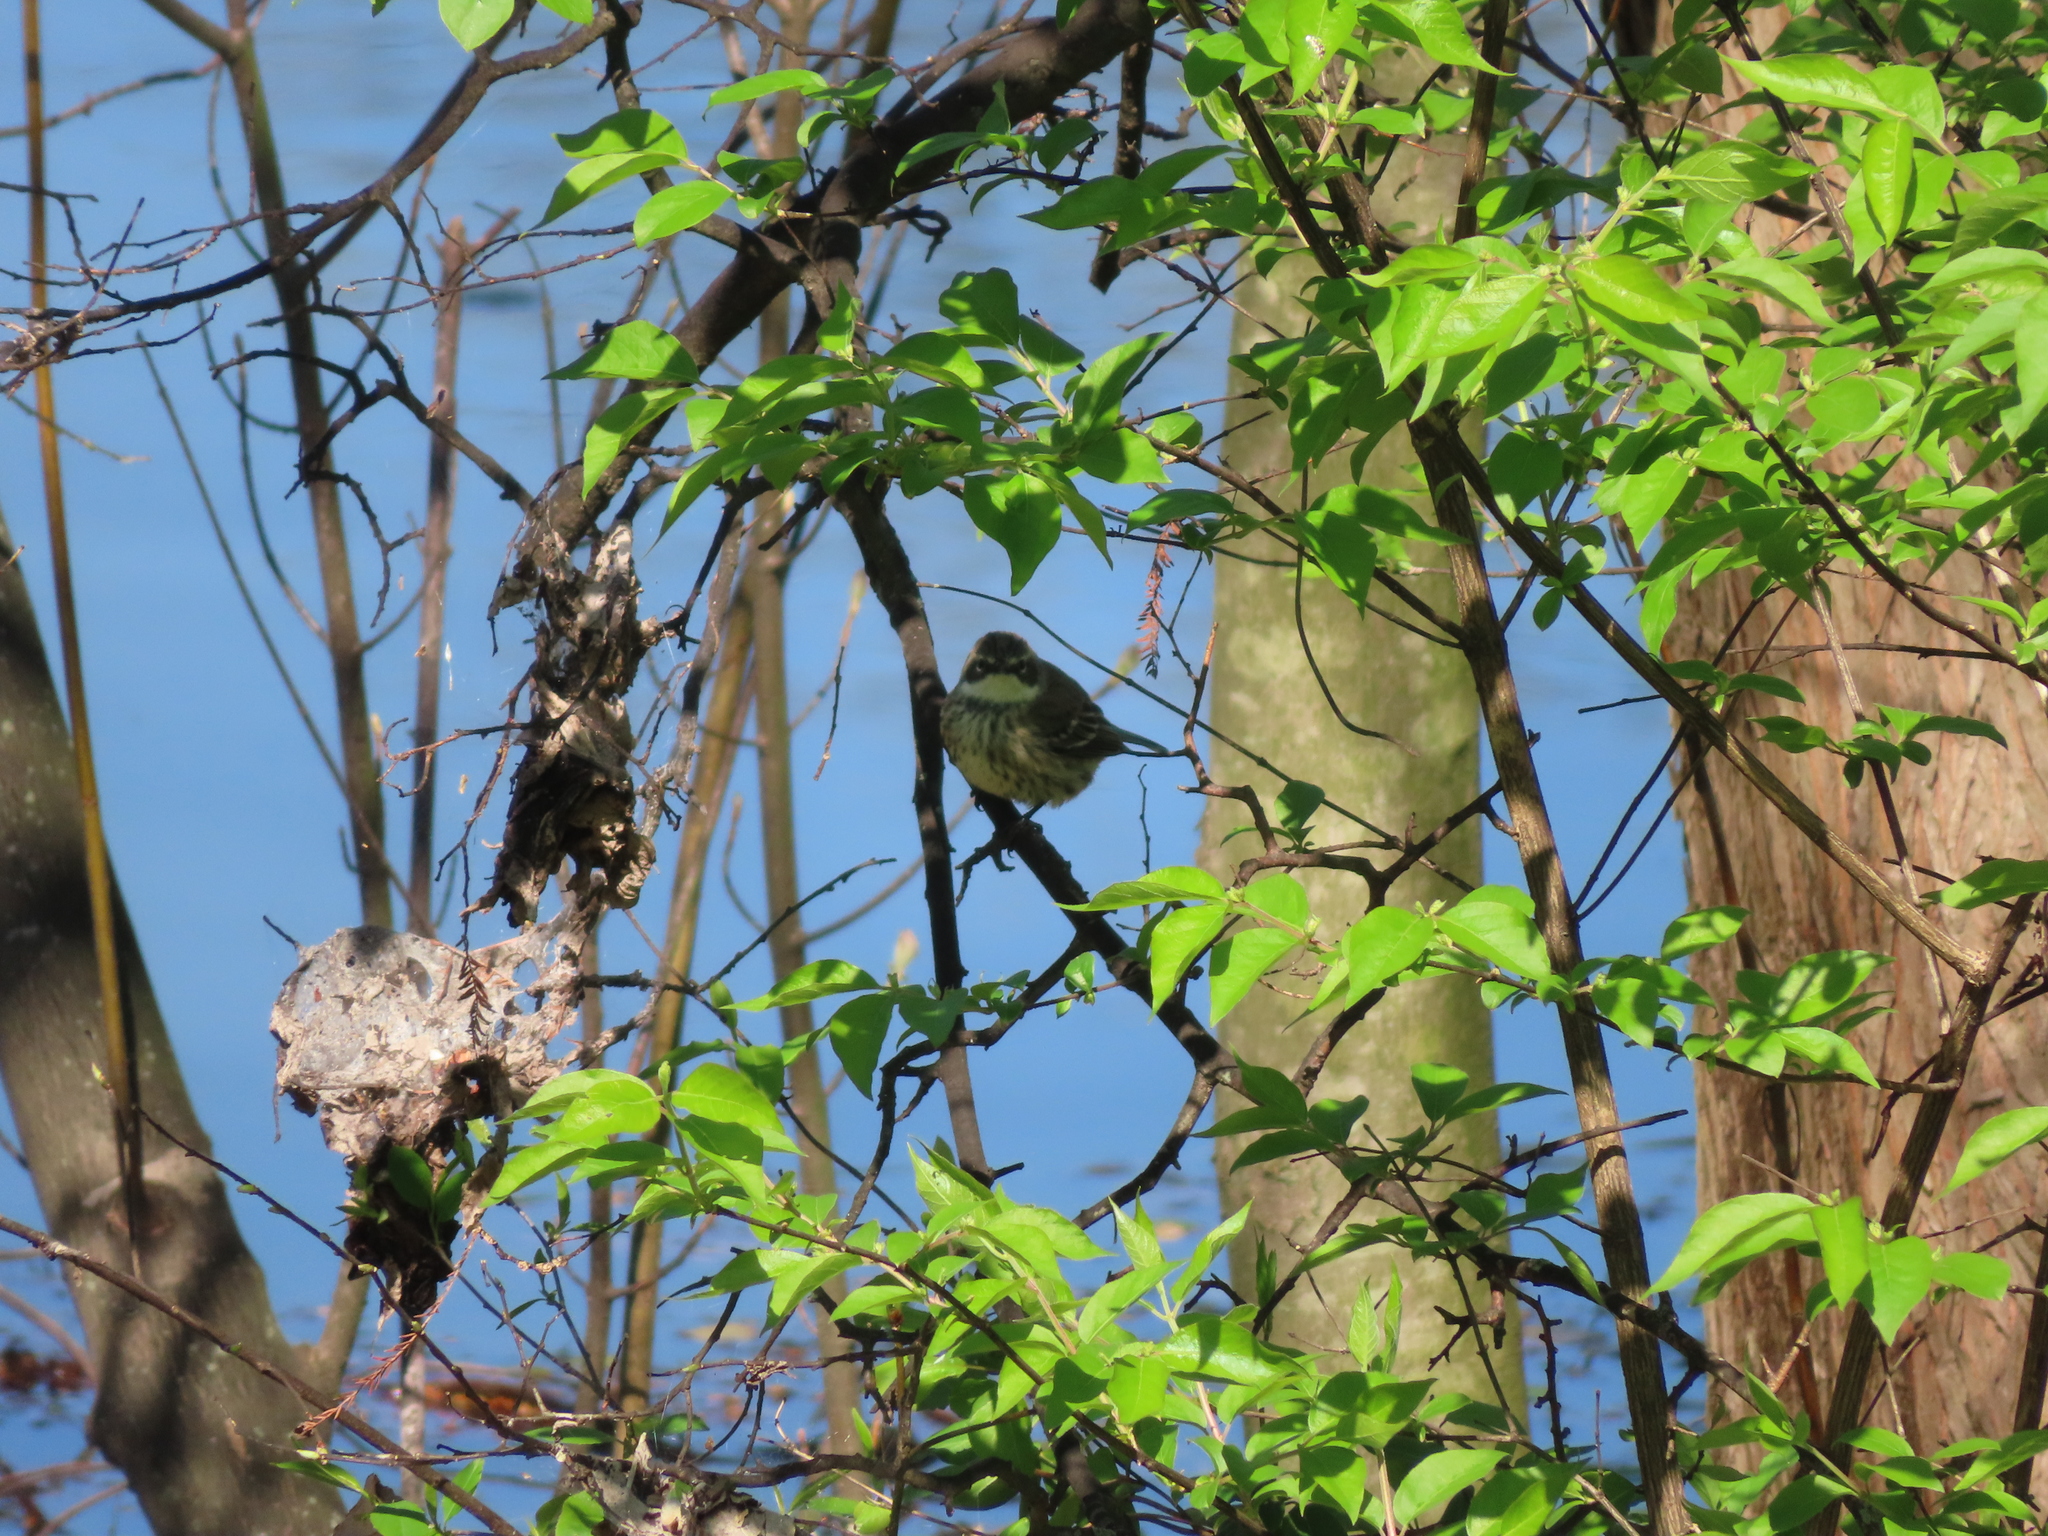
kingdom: Animalia
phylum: Chordata
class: Aves
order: Passeriformes
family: Parulidae
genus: Setophaga
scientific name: Setophaga coronata
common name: Myrtle warbler
